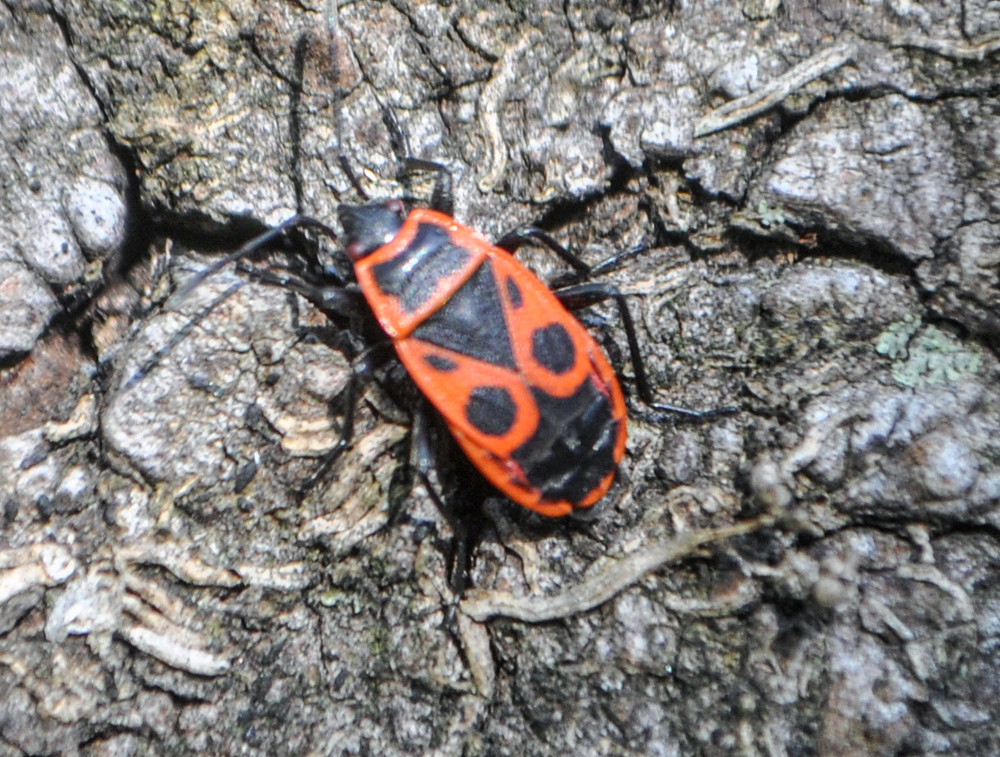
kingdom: Animalia
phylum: Arthropoda
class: Insecta
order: Hemiptera
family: Pyrrhocoridae
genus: Pyrrhocoris
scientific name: Pyrrhocoris apterus
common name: Firebug
